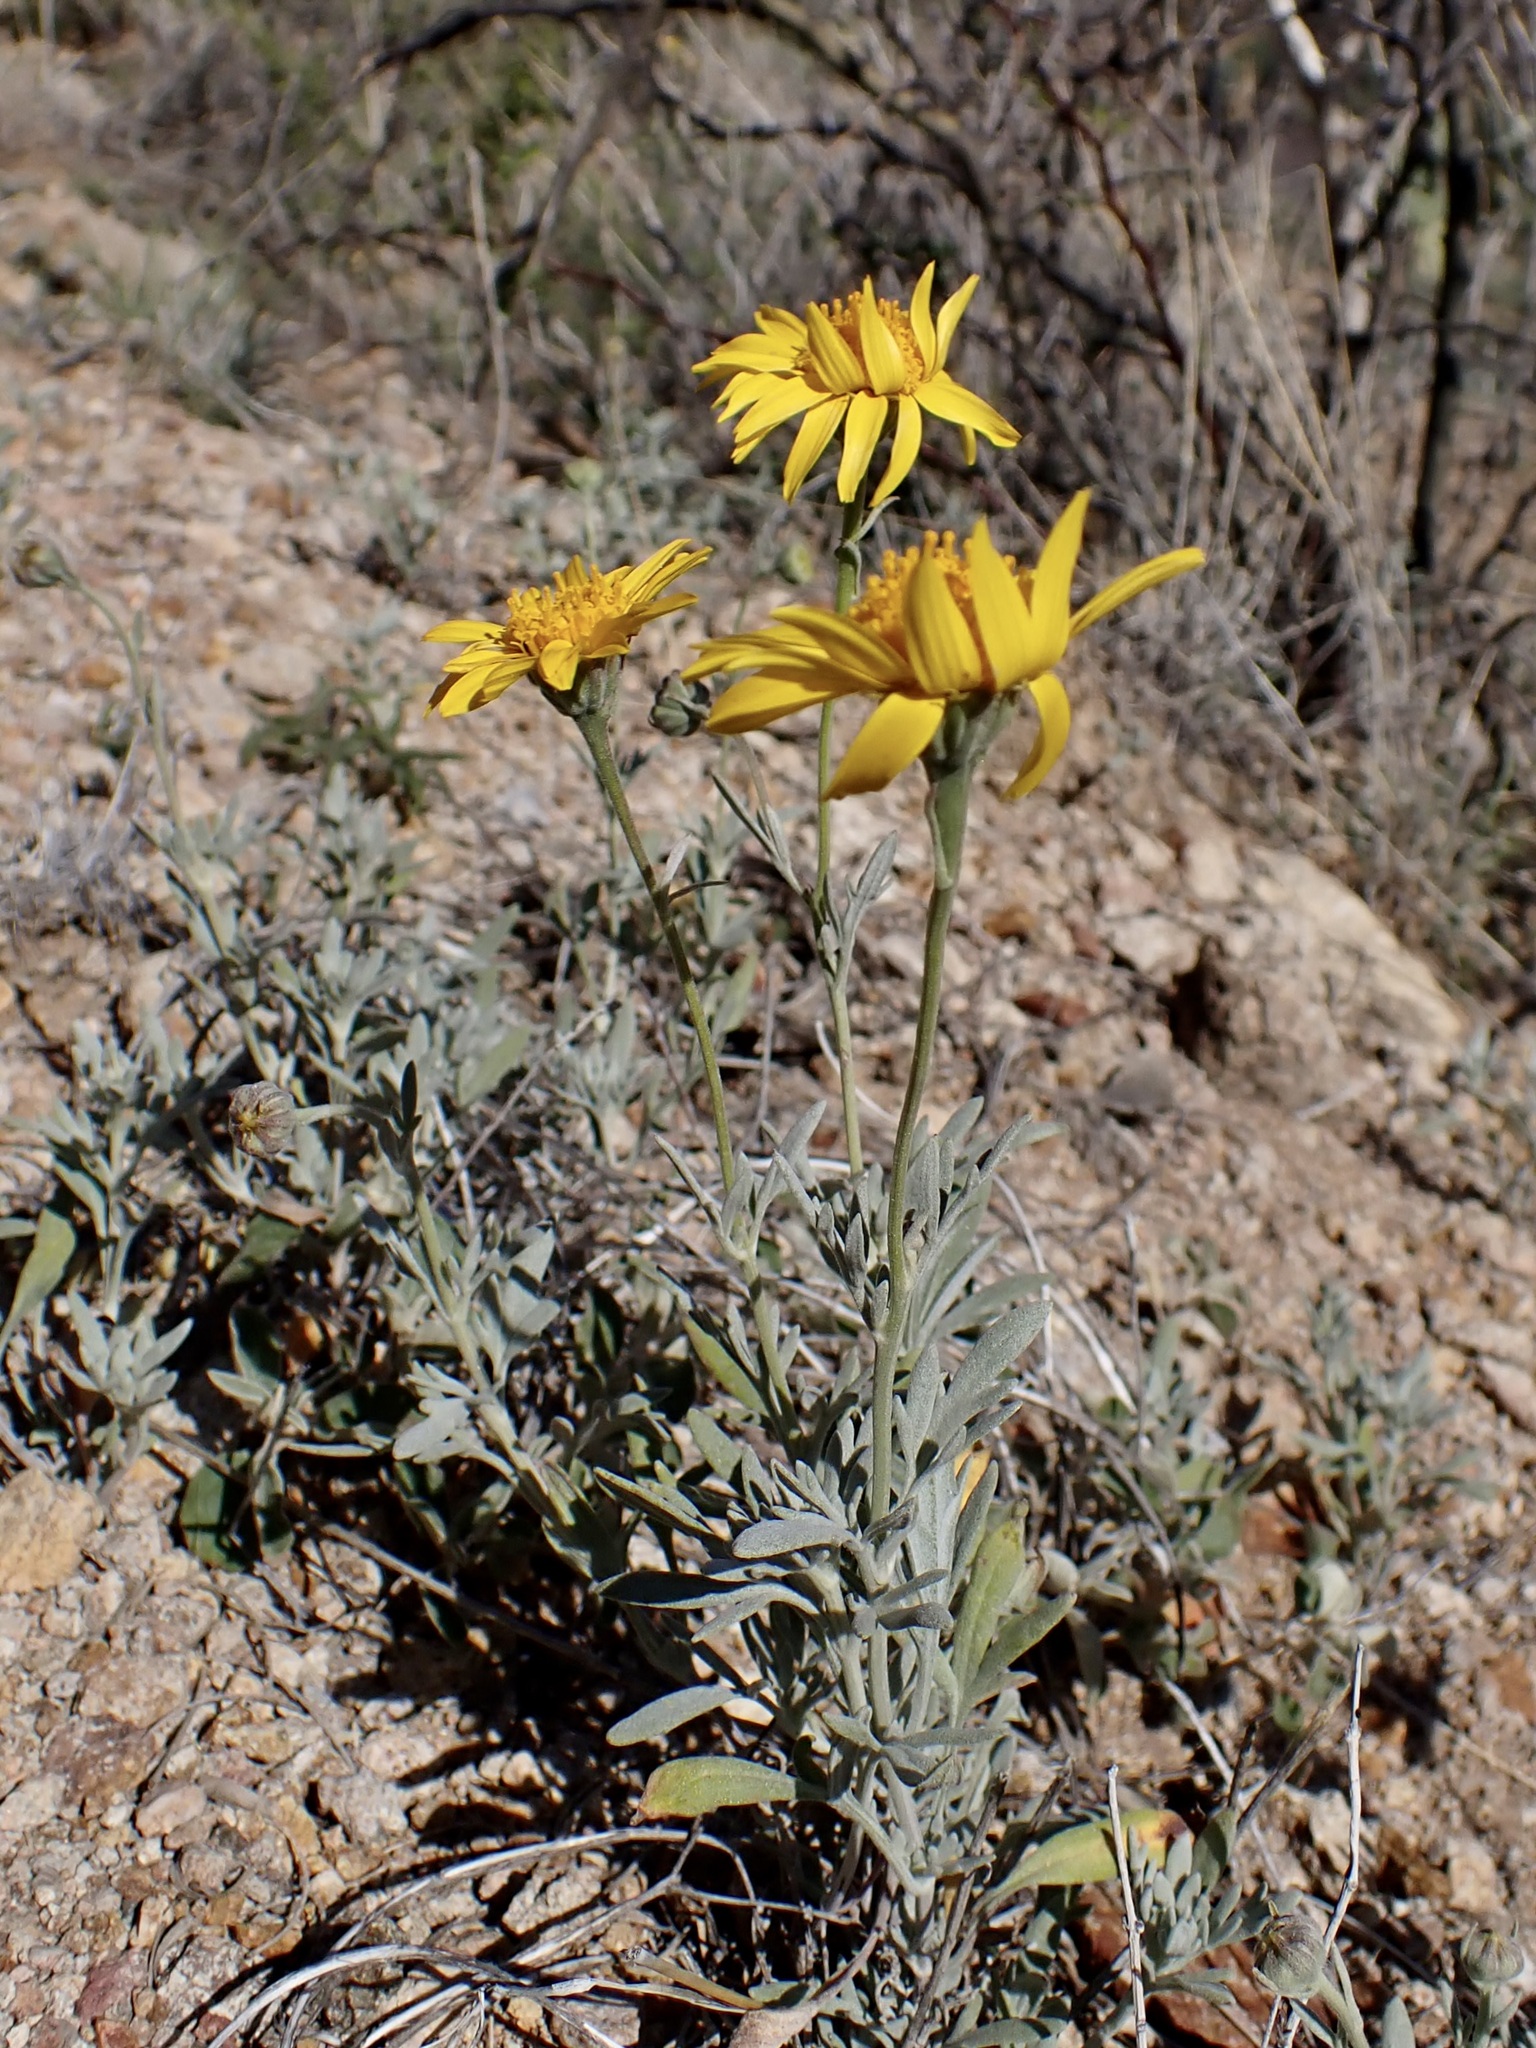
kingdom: Plantae
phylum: Tracheophyta
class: Magnoliopsida
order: Asterales
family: Asteraceae
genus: Picradeniopsis
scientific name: Picradeniopsis absinthifolia
